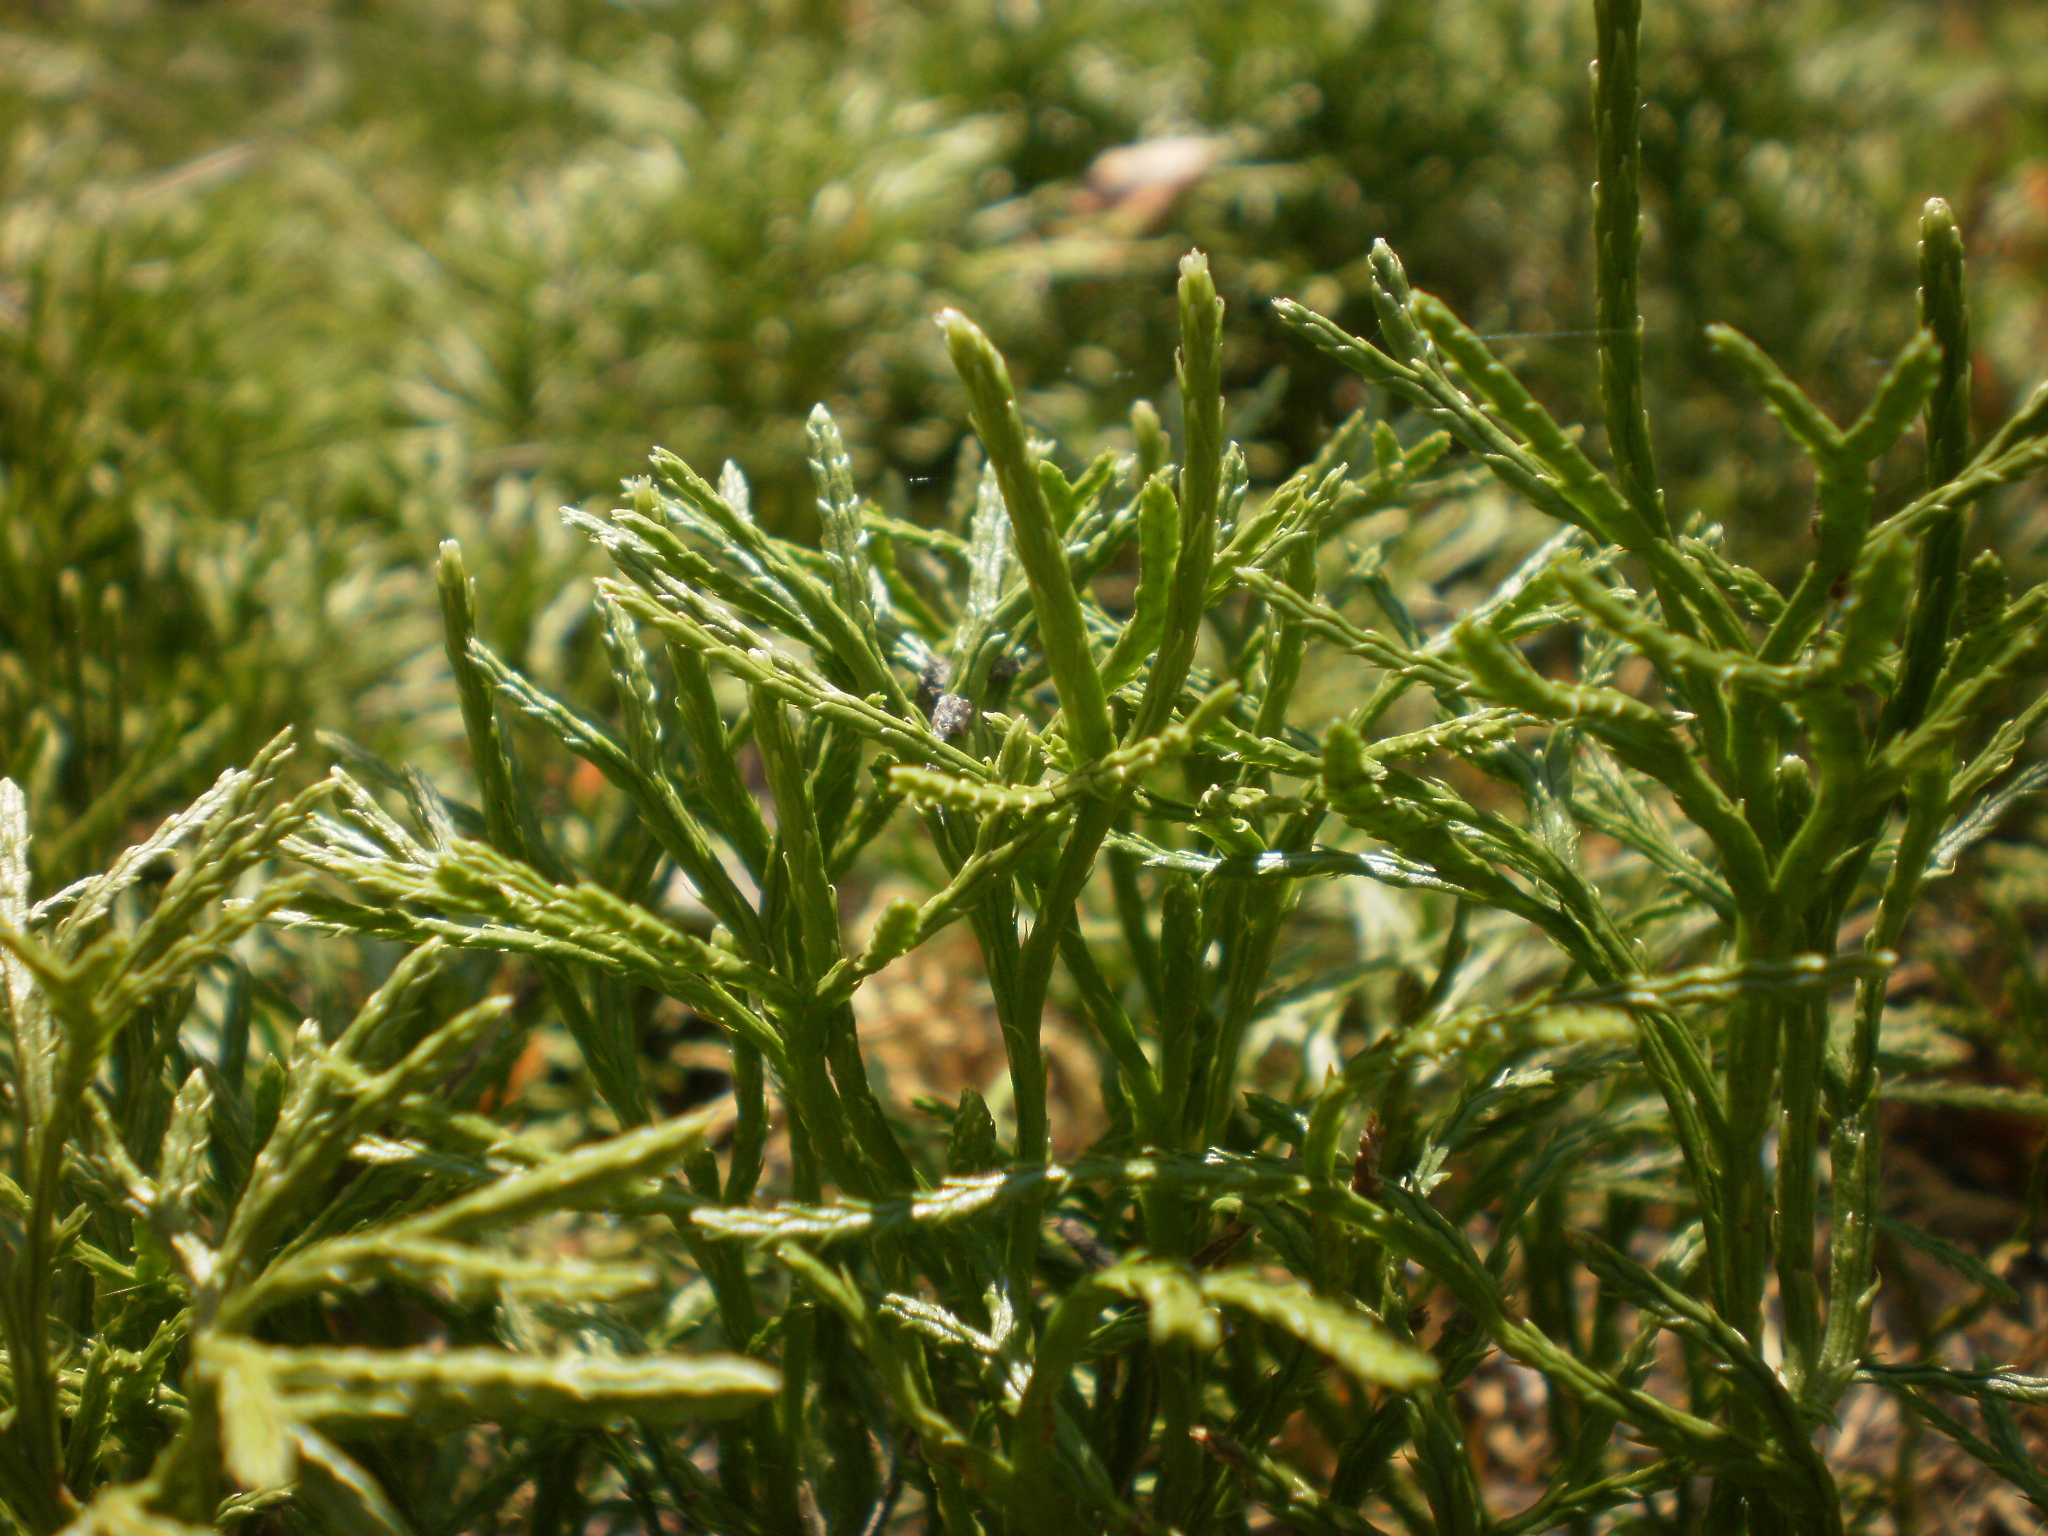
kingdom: Plantae
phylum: Tracheophyta
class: Lycopodiopsida
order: Lycopodiales
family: Lycopodiaceae
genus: Diphasiastrum
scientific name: Diphasiastrum complanatum
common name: Northern running-pine
